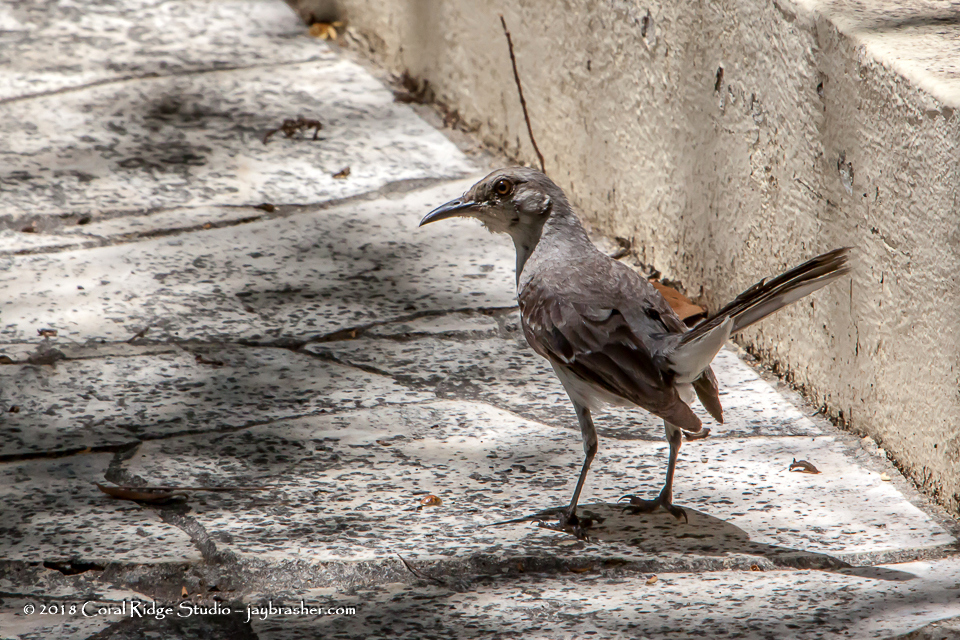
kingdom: Animalia
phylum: Chordata
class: Aves
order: Passeriformes
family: Mimidae
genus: Mimus
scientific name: Mimus gilvus
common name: Tropical mockingbird
